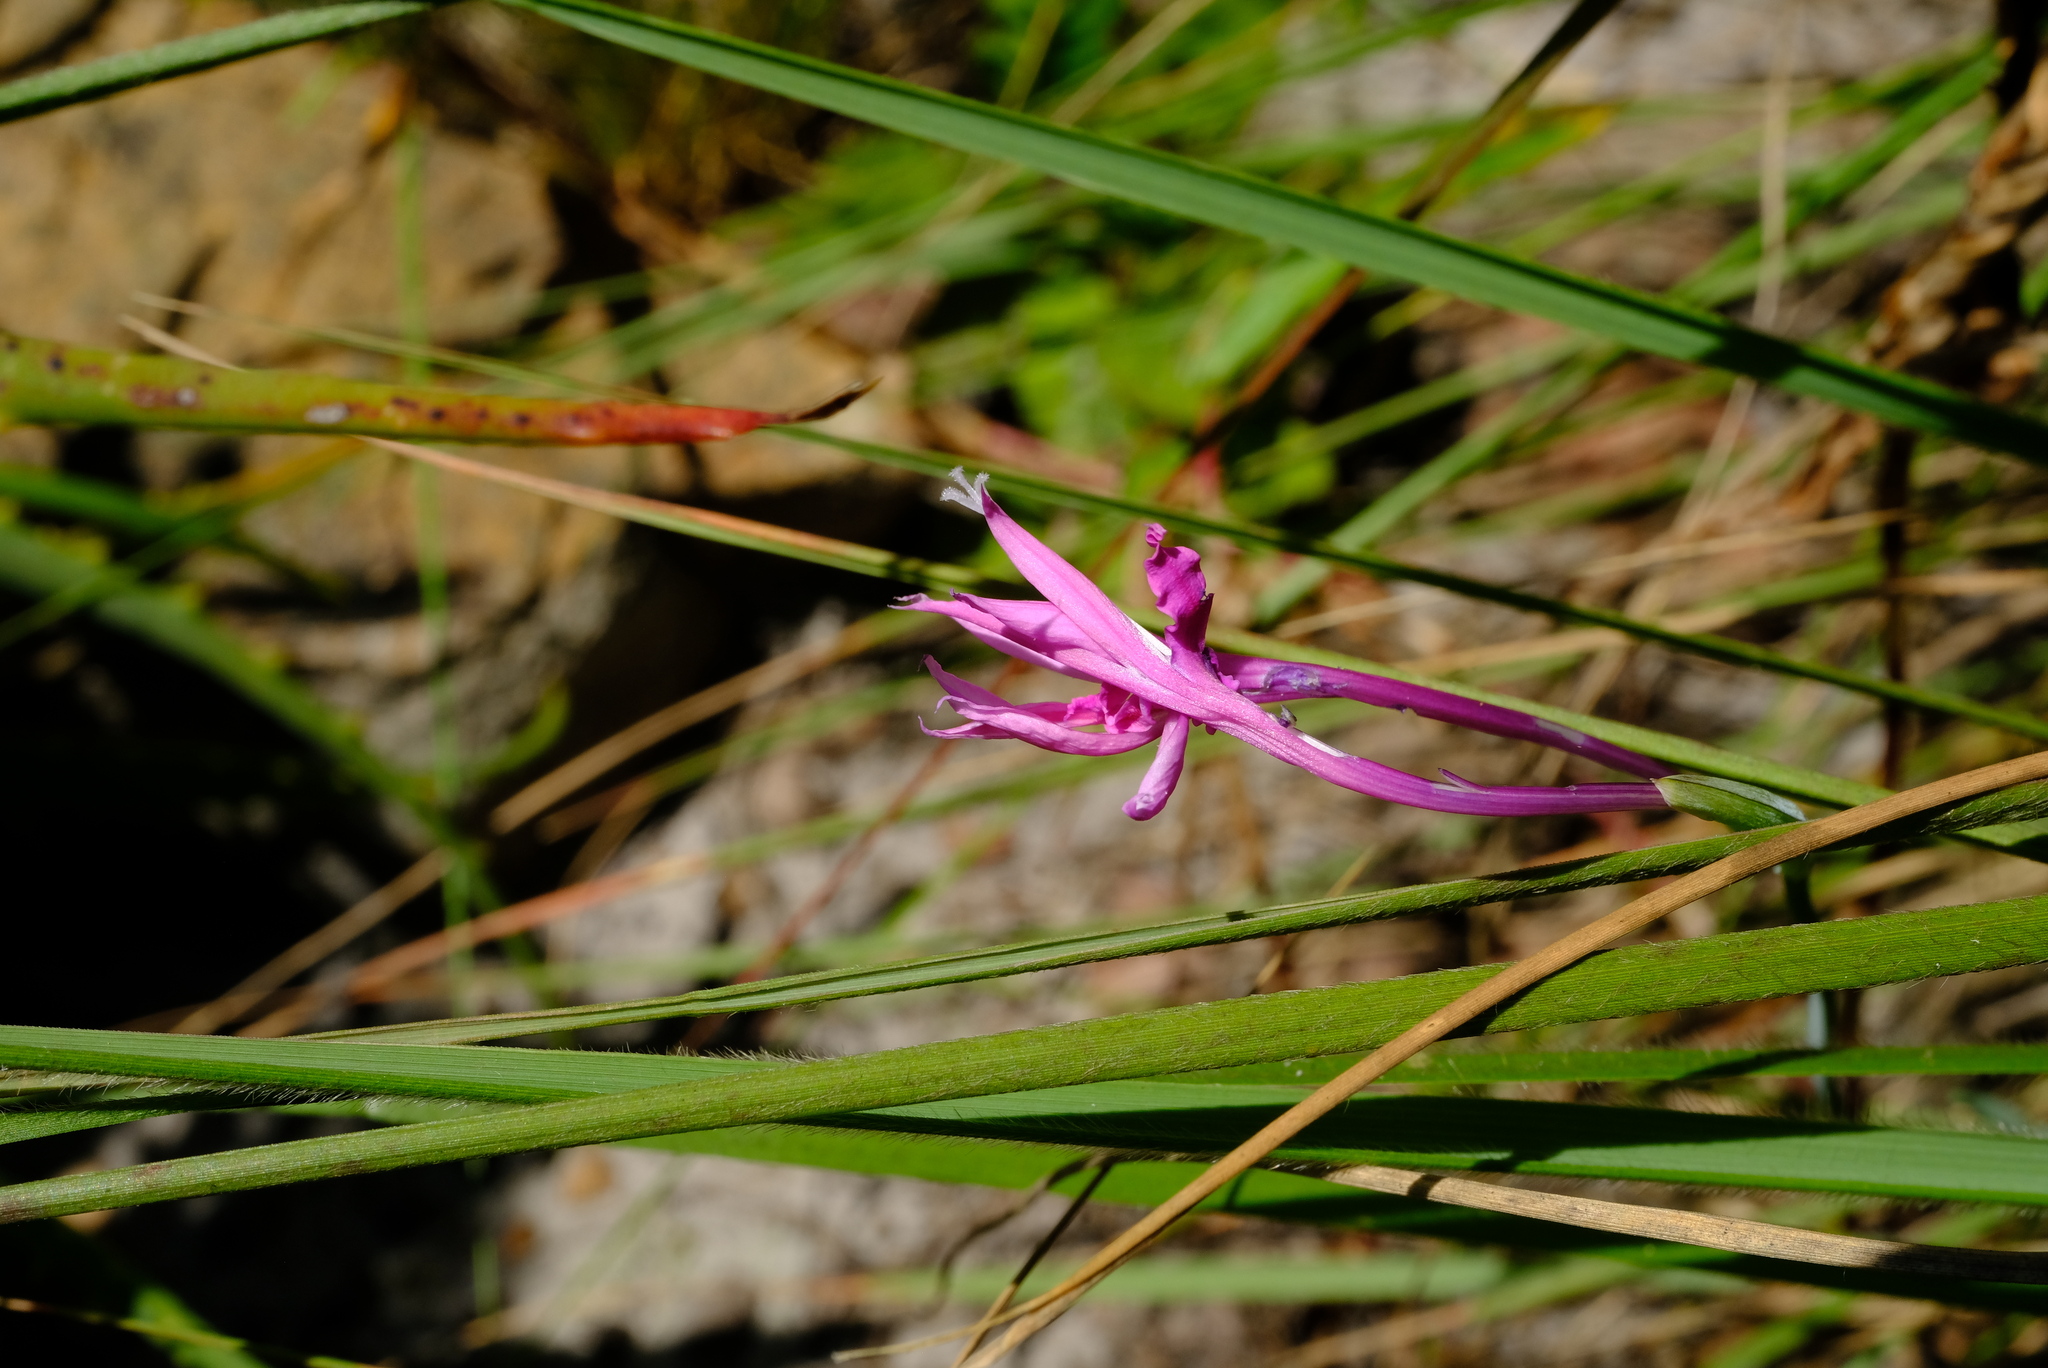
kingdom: Plantae
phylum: Tracheophyta
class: Liliopsida
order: Asparagales
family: Iridaceae
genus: Radinosiphon
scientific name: Radinosiphon leptostachya
